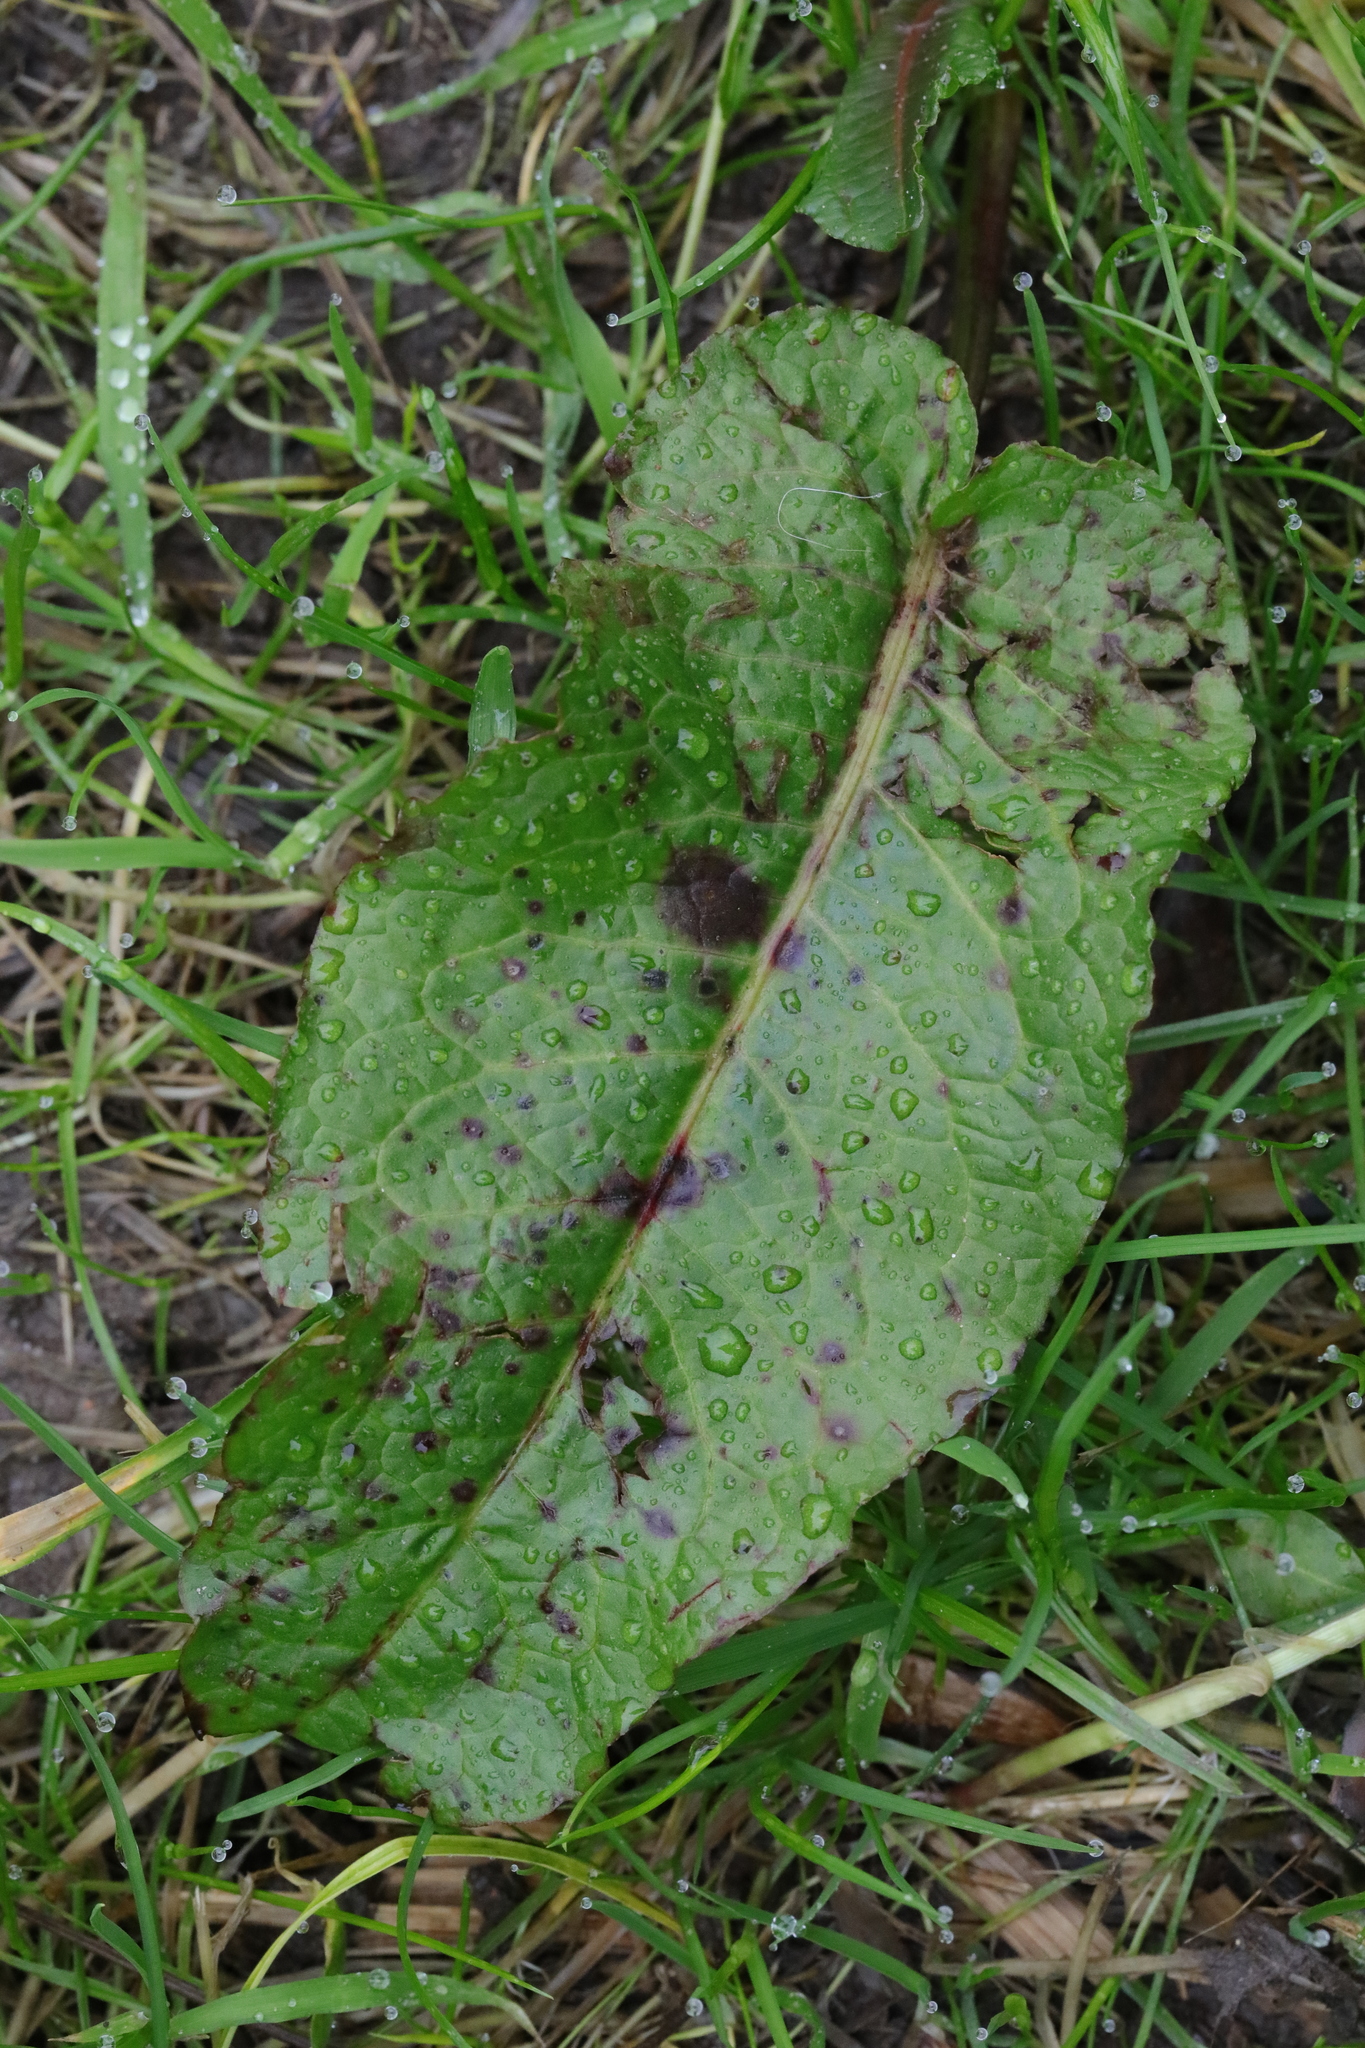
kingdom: Plantae
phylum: Tracheophyta
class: Magnoliopsida
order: Caryophyllales
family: Polygonaceae
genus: Rumex
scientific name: Rumex obtusifolius
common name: Bitter dock
